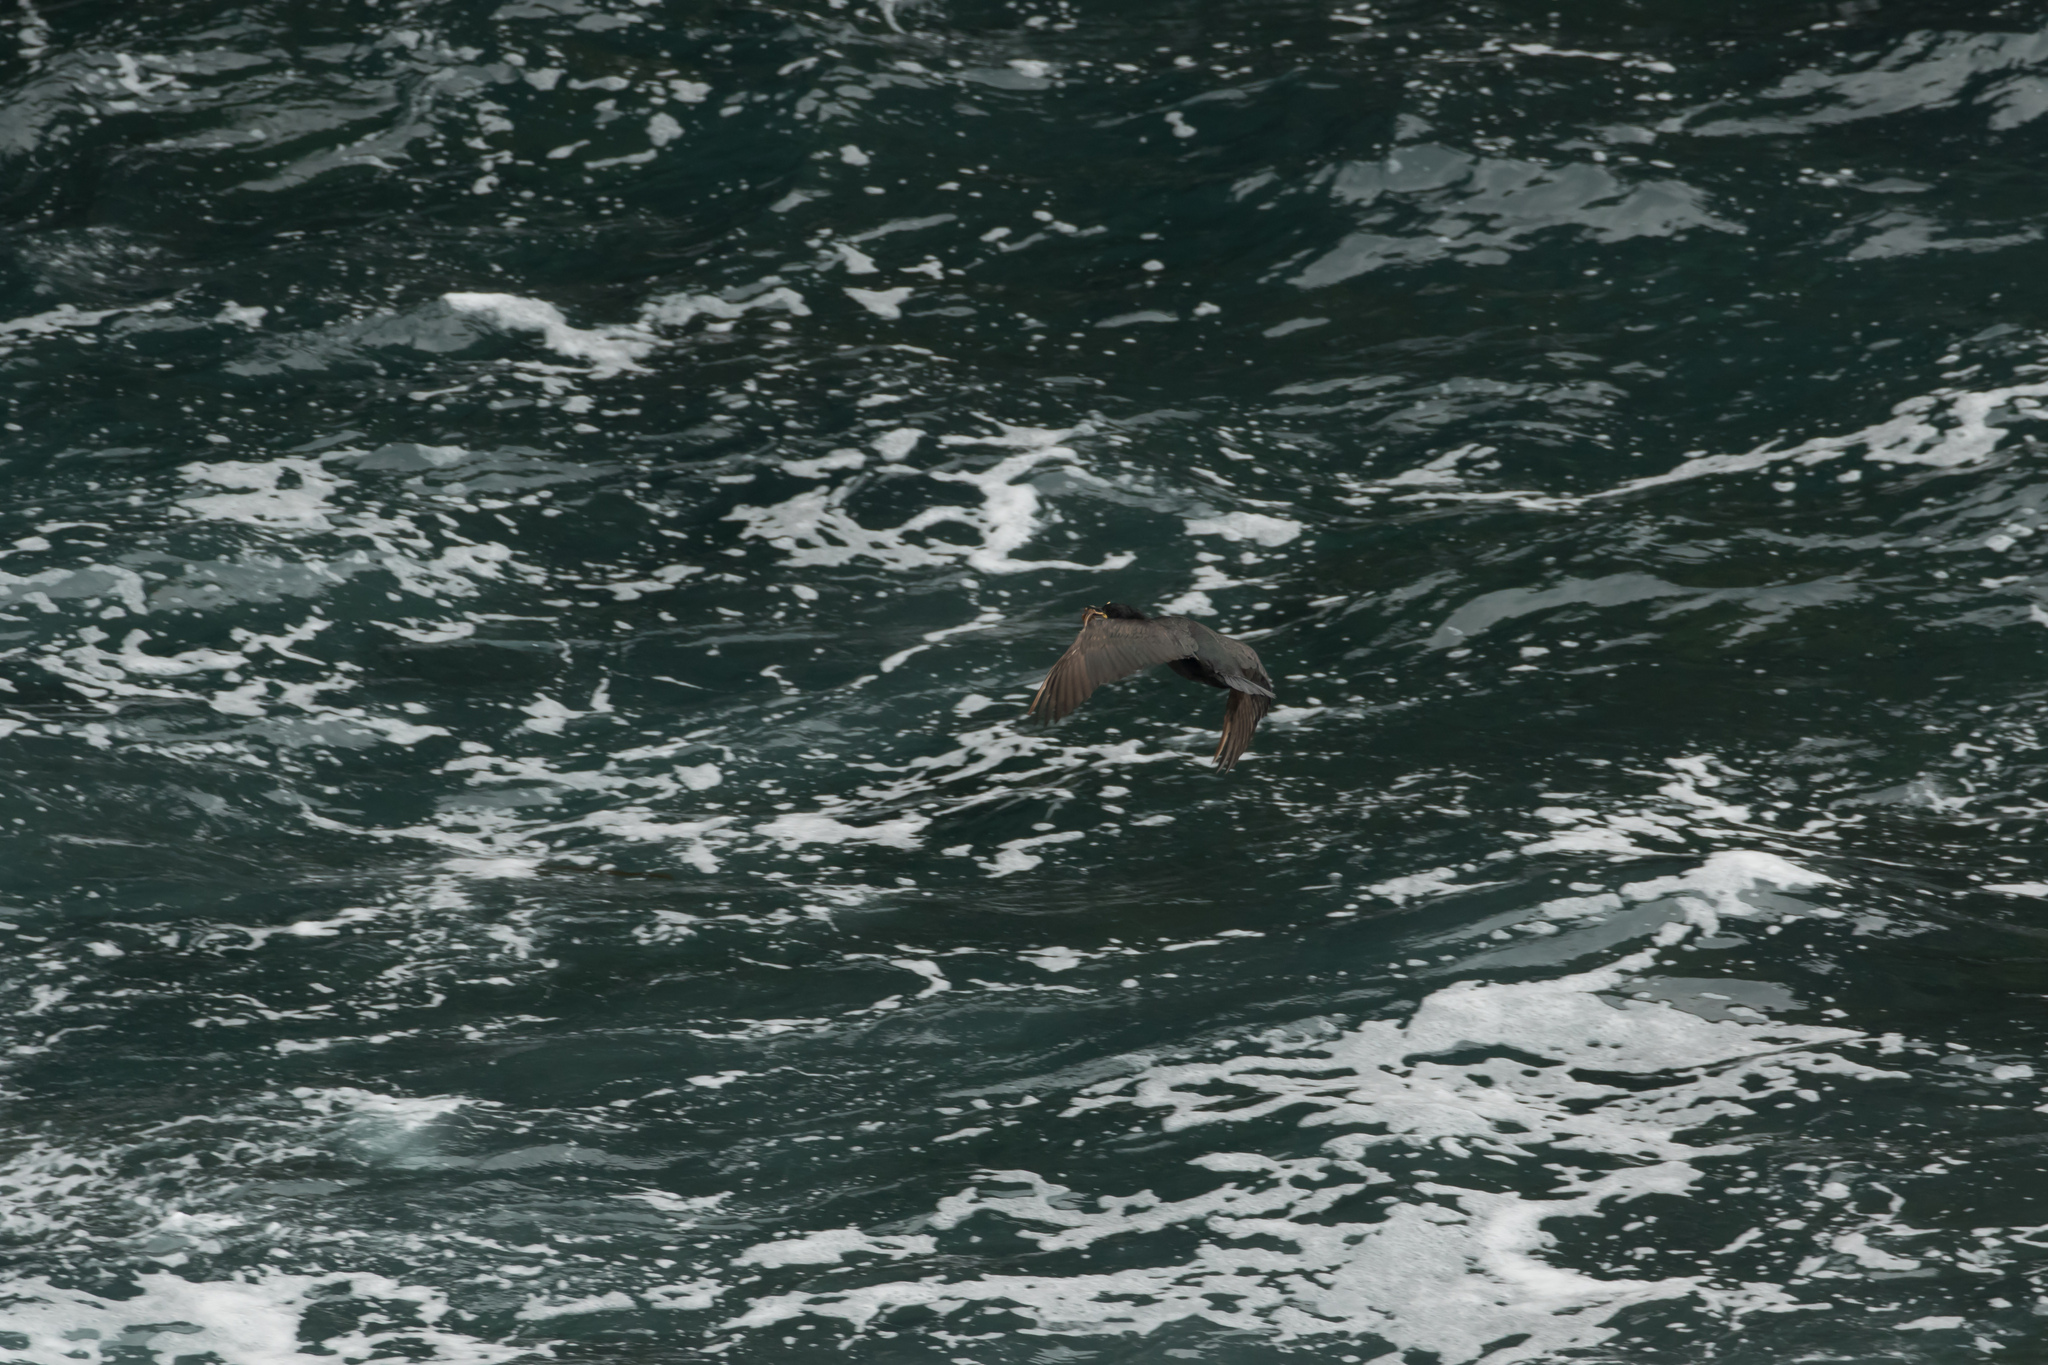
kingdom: Animalia
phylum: Chordata
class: Aves
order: Suliformes
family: Phalacrocoracidae
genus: Phalacrocorax
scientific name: Phalacrocorax aristotelis
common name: European shag
